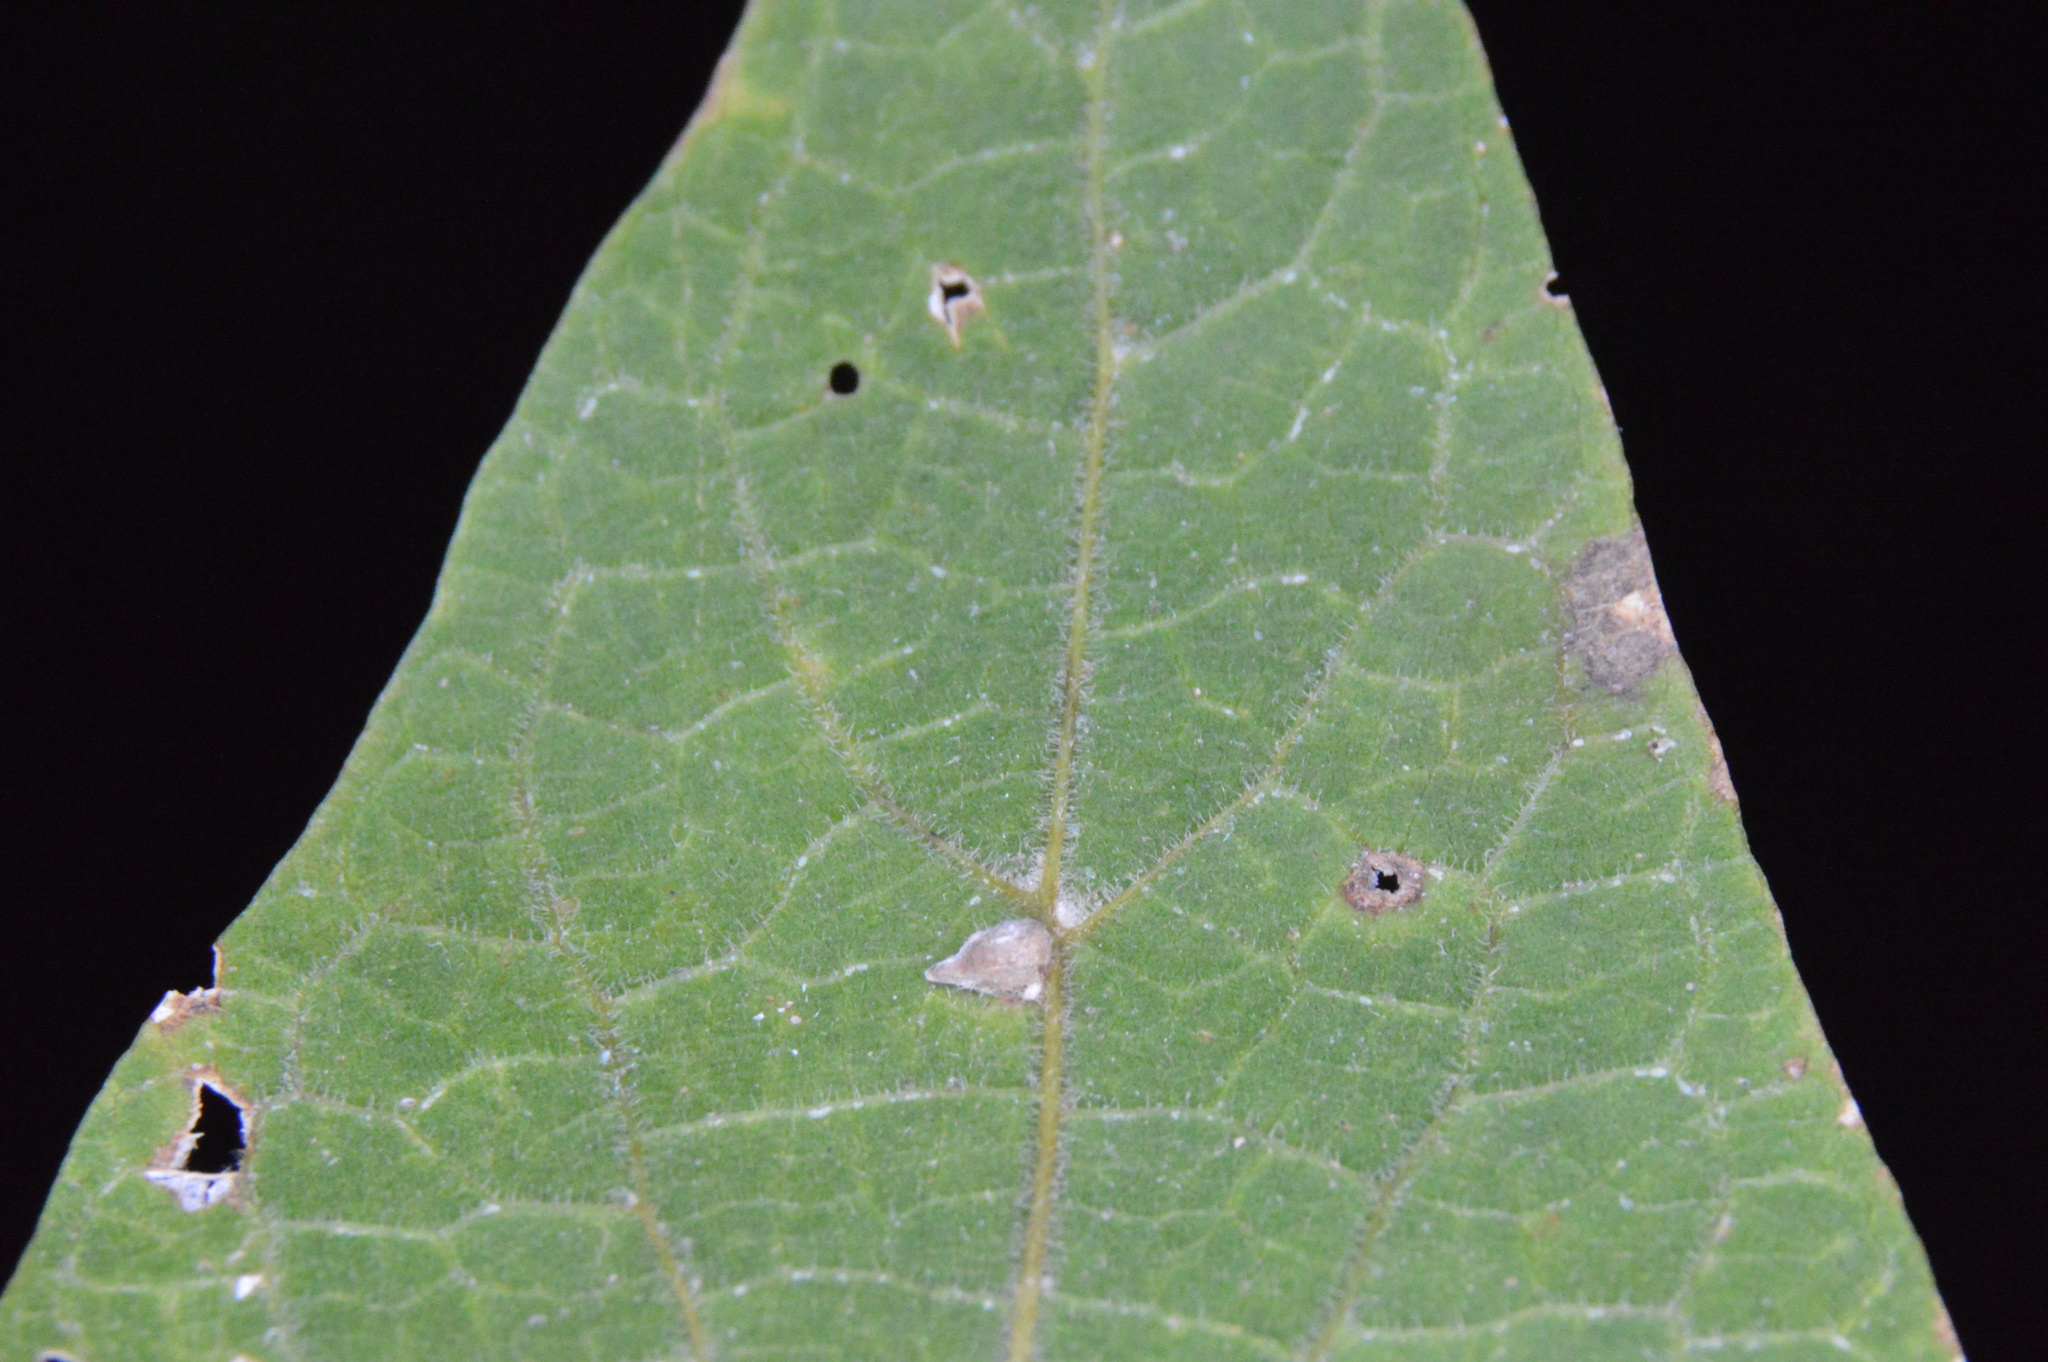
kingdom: Animalia
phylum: Arthropoda
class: Insecta
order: Diptera
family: Cecidomyiidae
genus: Celticecis
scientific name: Celticecis supina
